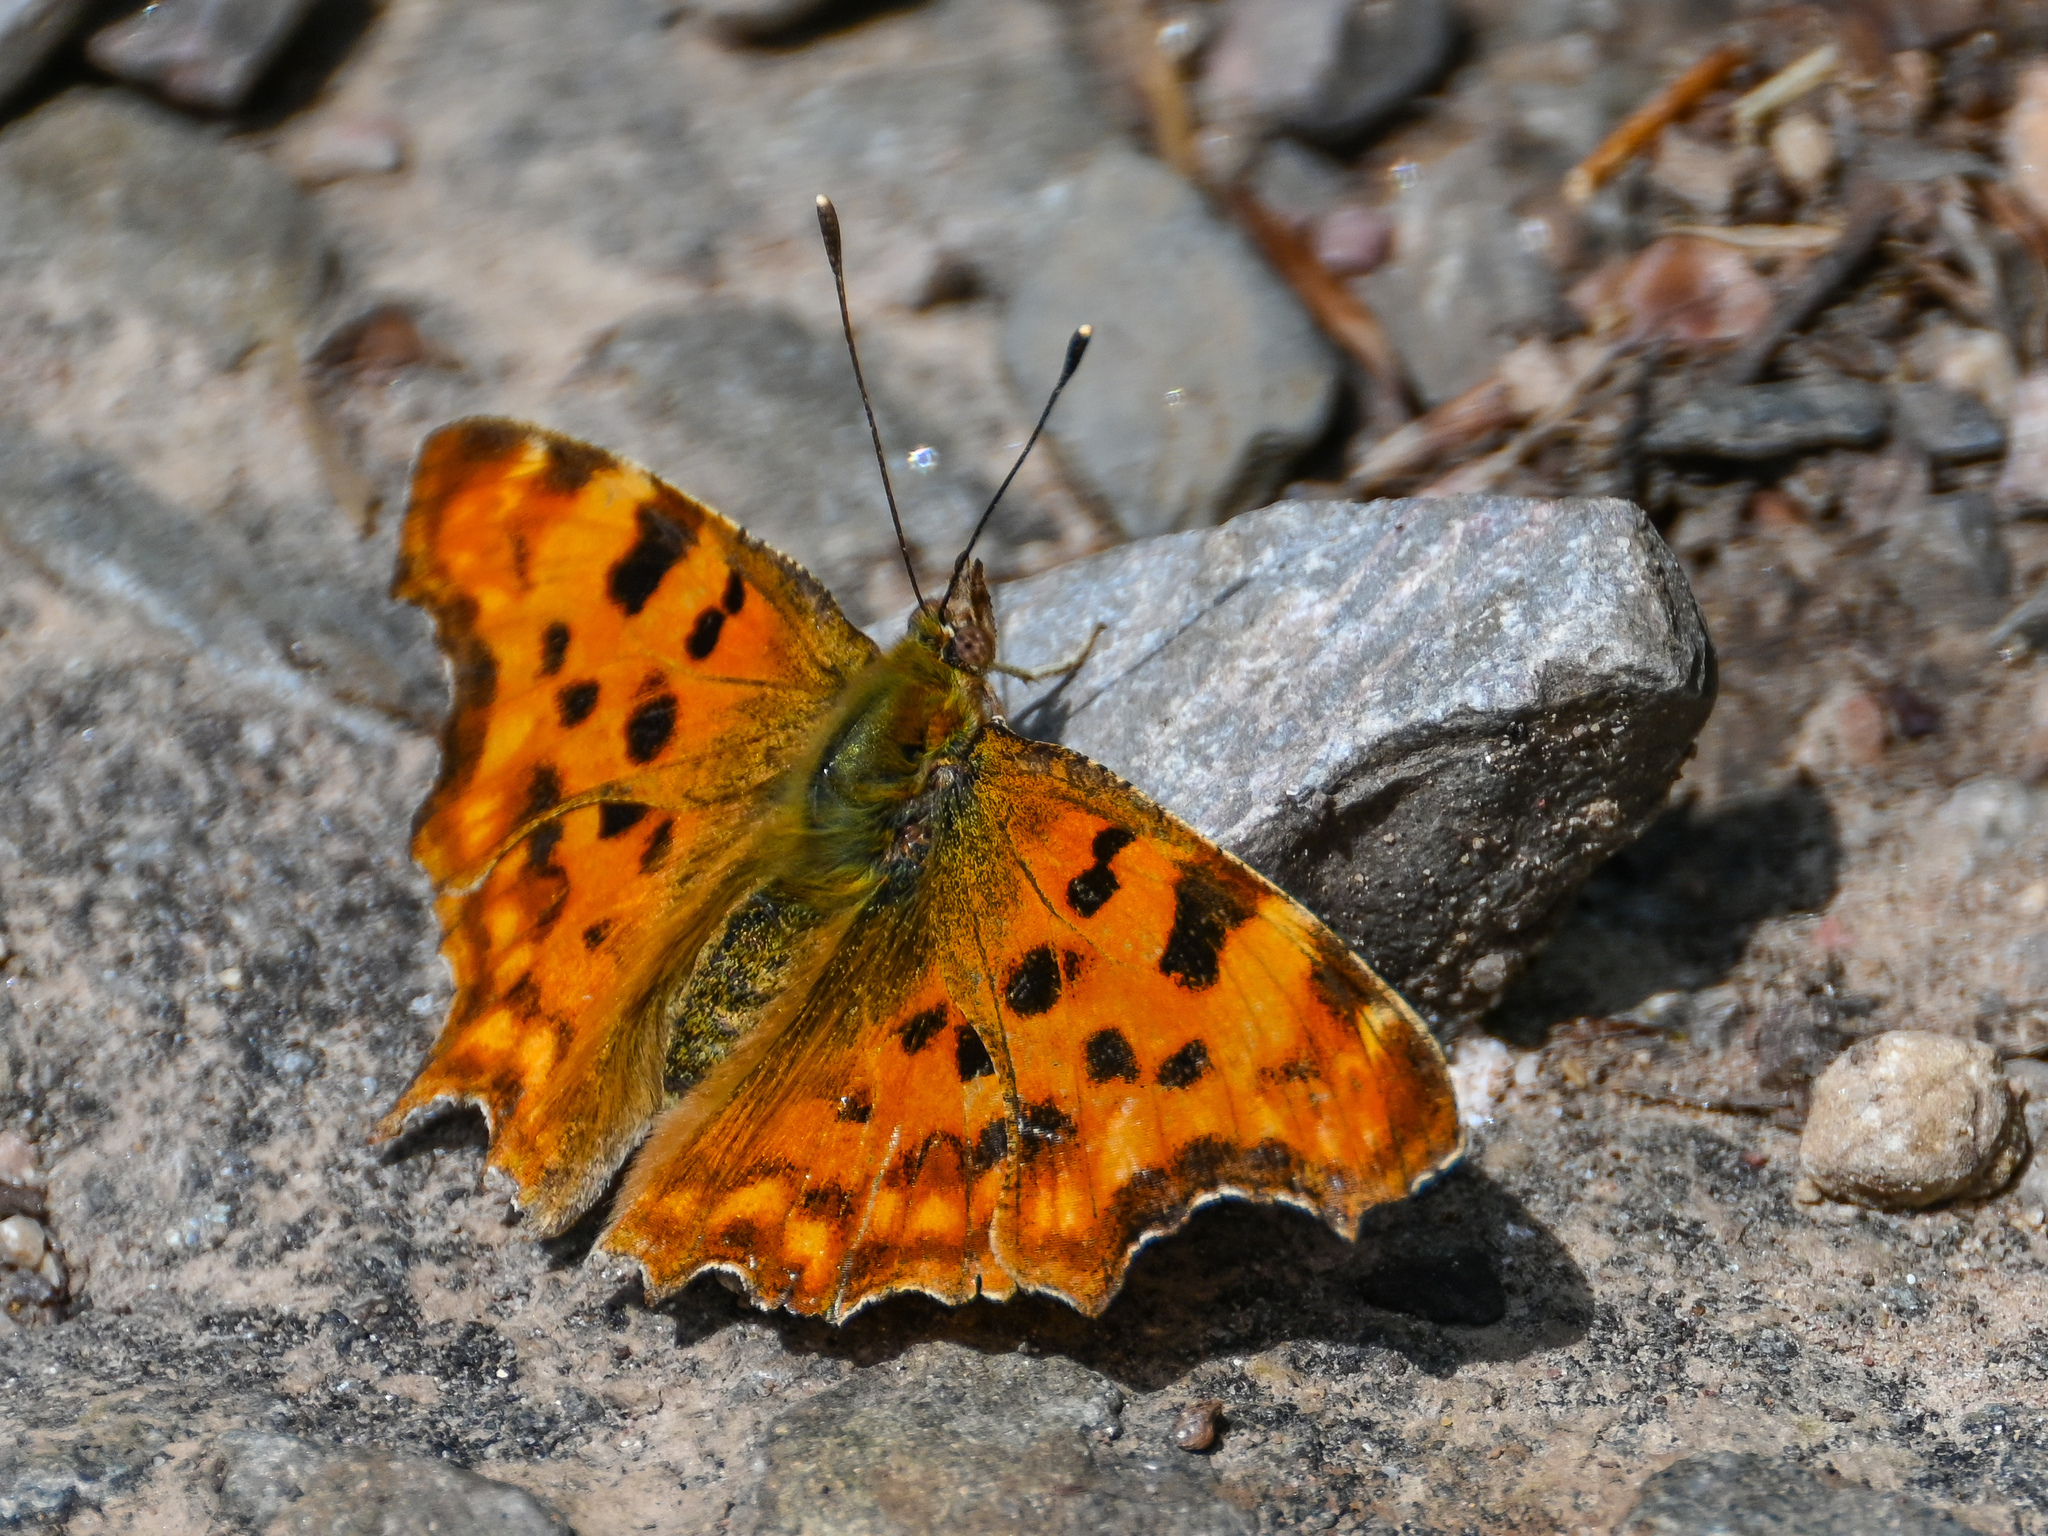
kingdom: Animalia
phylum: Arthropoda
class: Insecta
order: Lepidoptera
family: Nymphalidae
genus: Polygonia
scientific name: Polygonia c-album
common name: Comma
